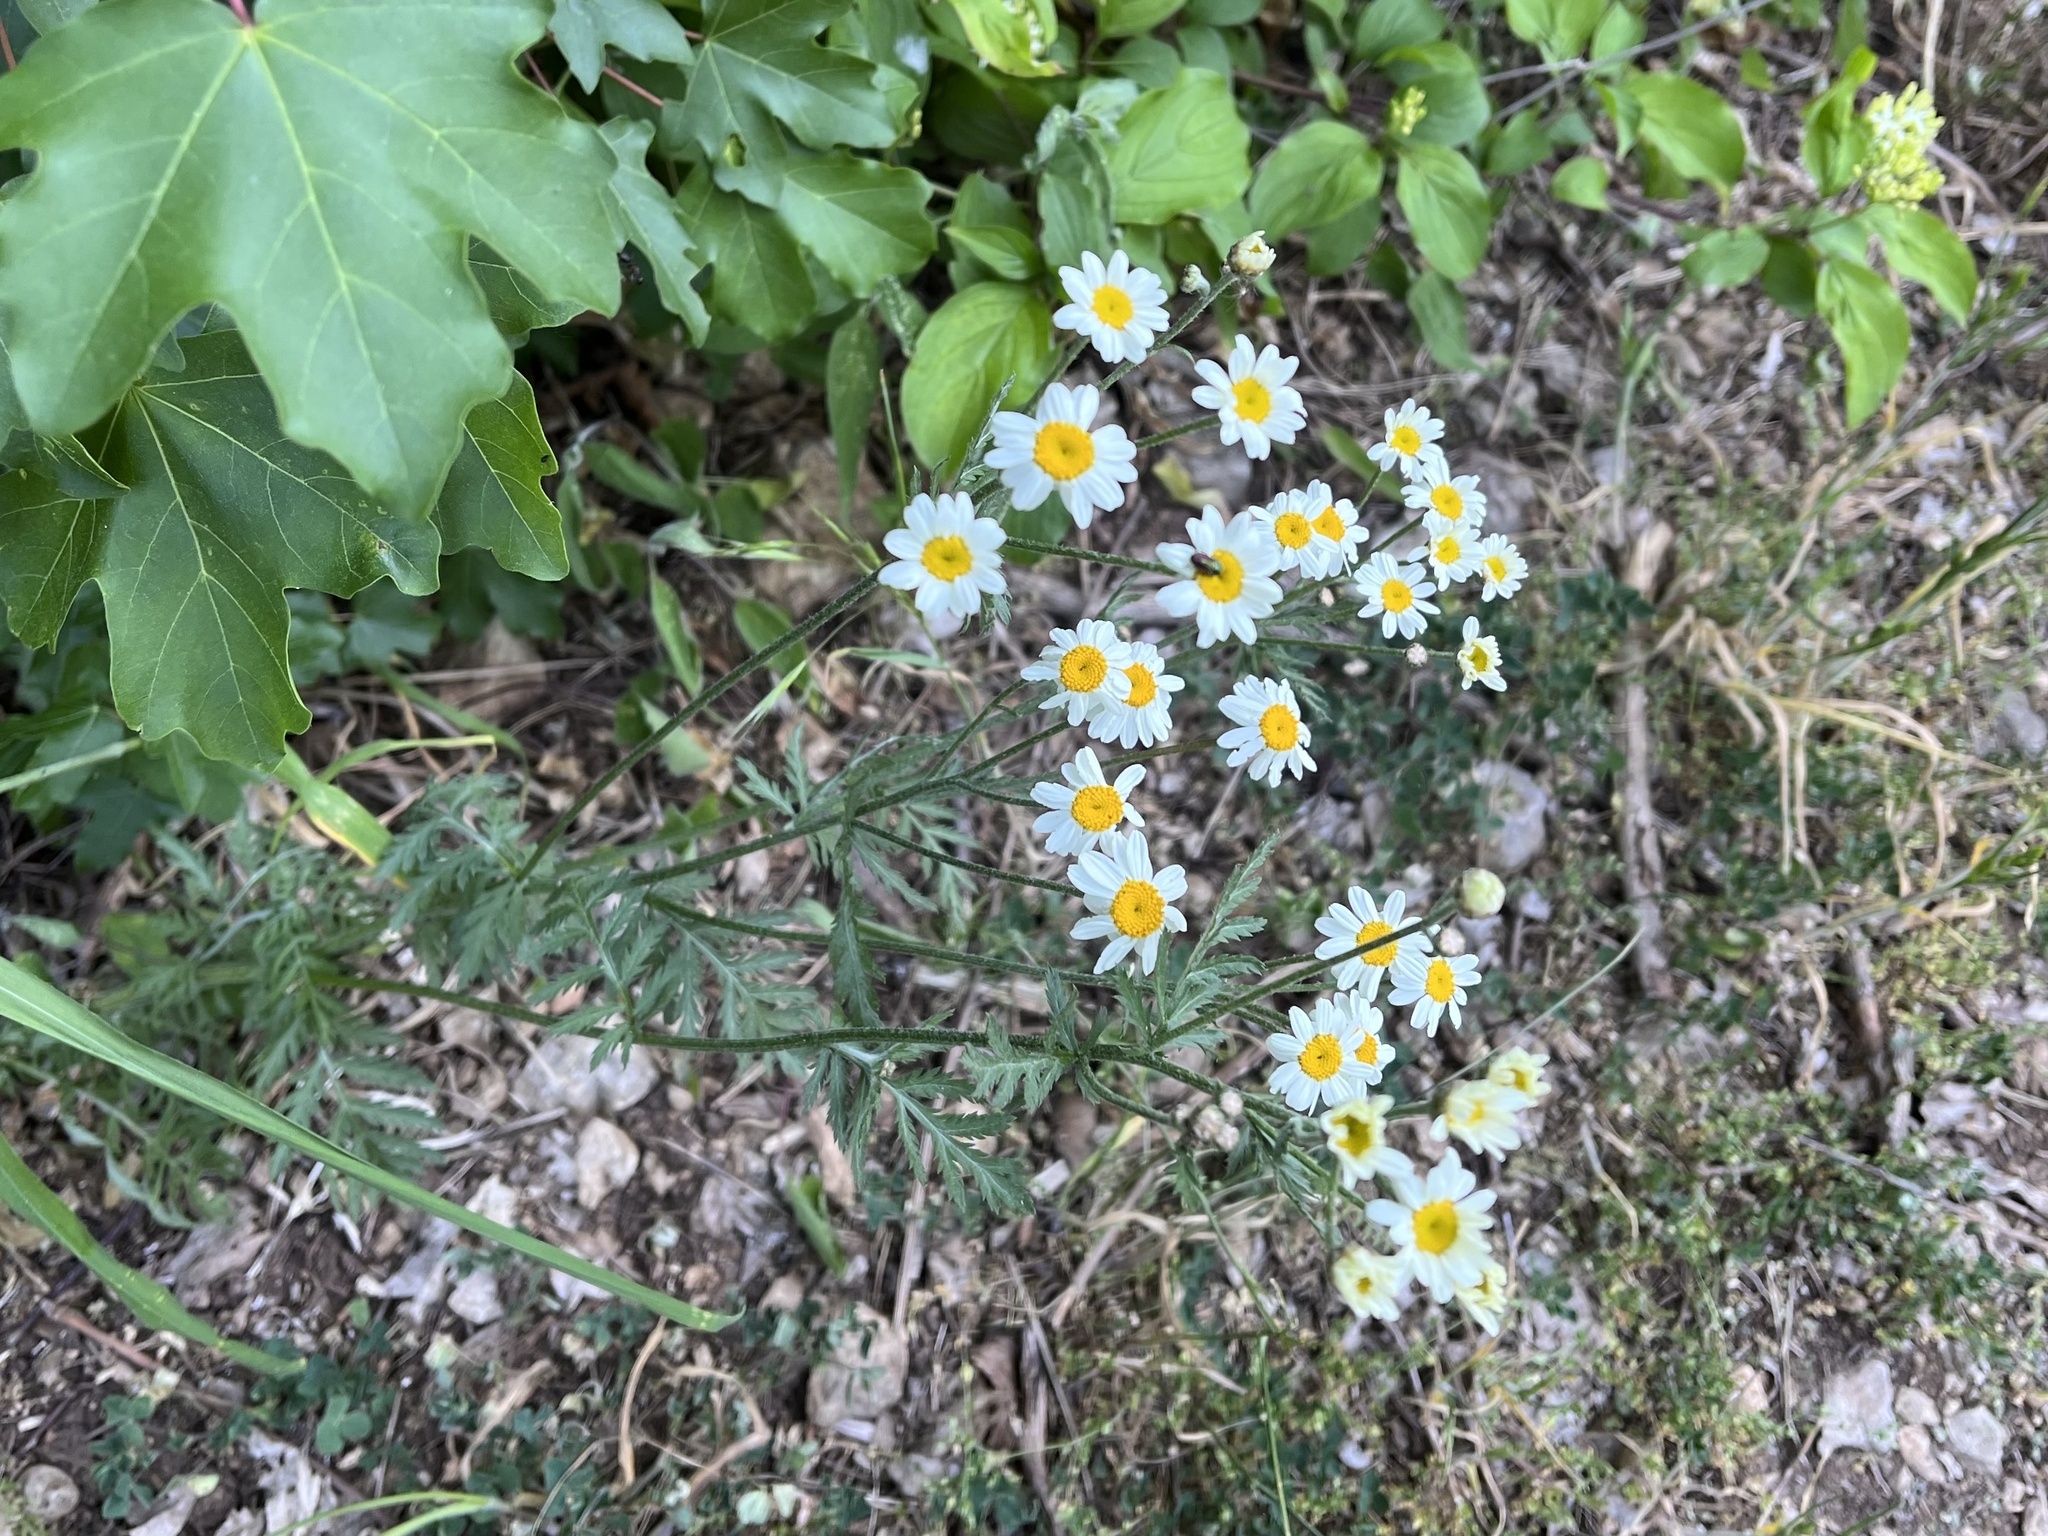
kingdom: Plantae
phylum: Tracheophyta
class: Magnoliopsida
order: Asterales
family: Asteraceae
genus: Tanacetum
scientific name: Tanacetum corymbosum
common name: Scentless feverfew
